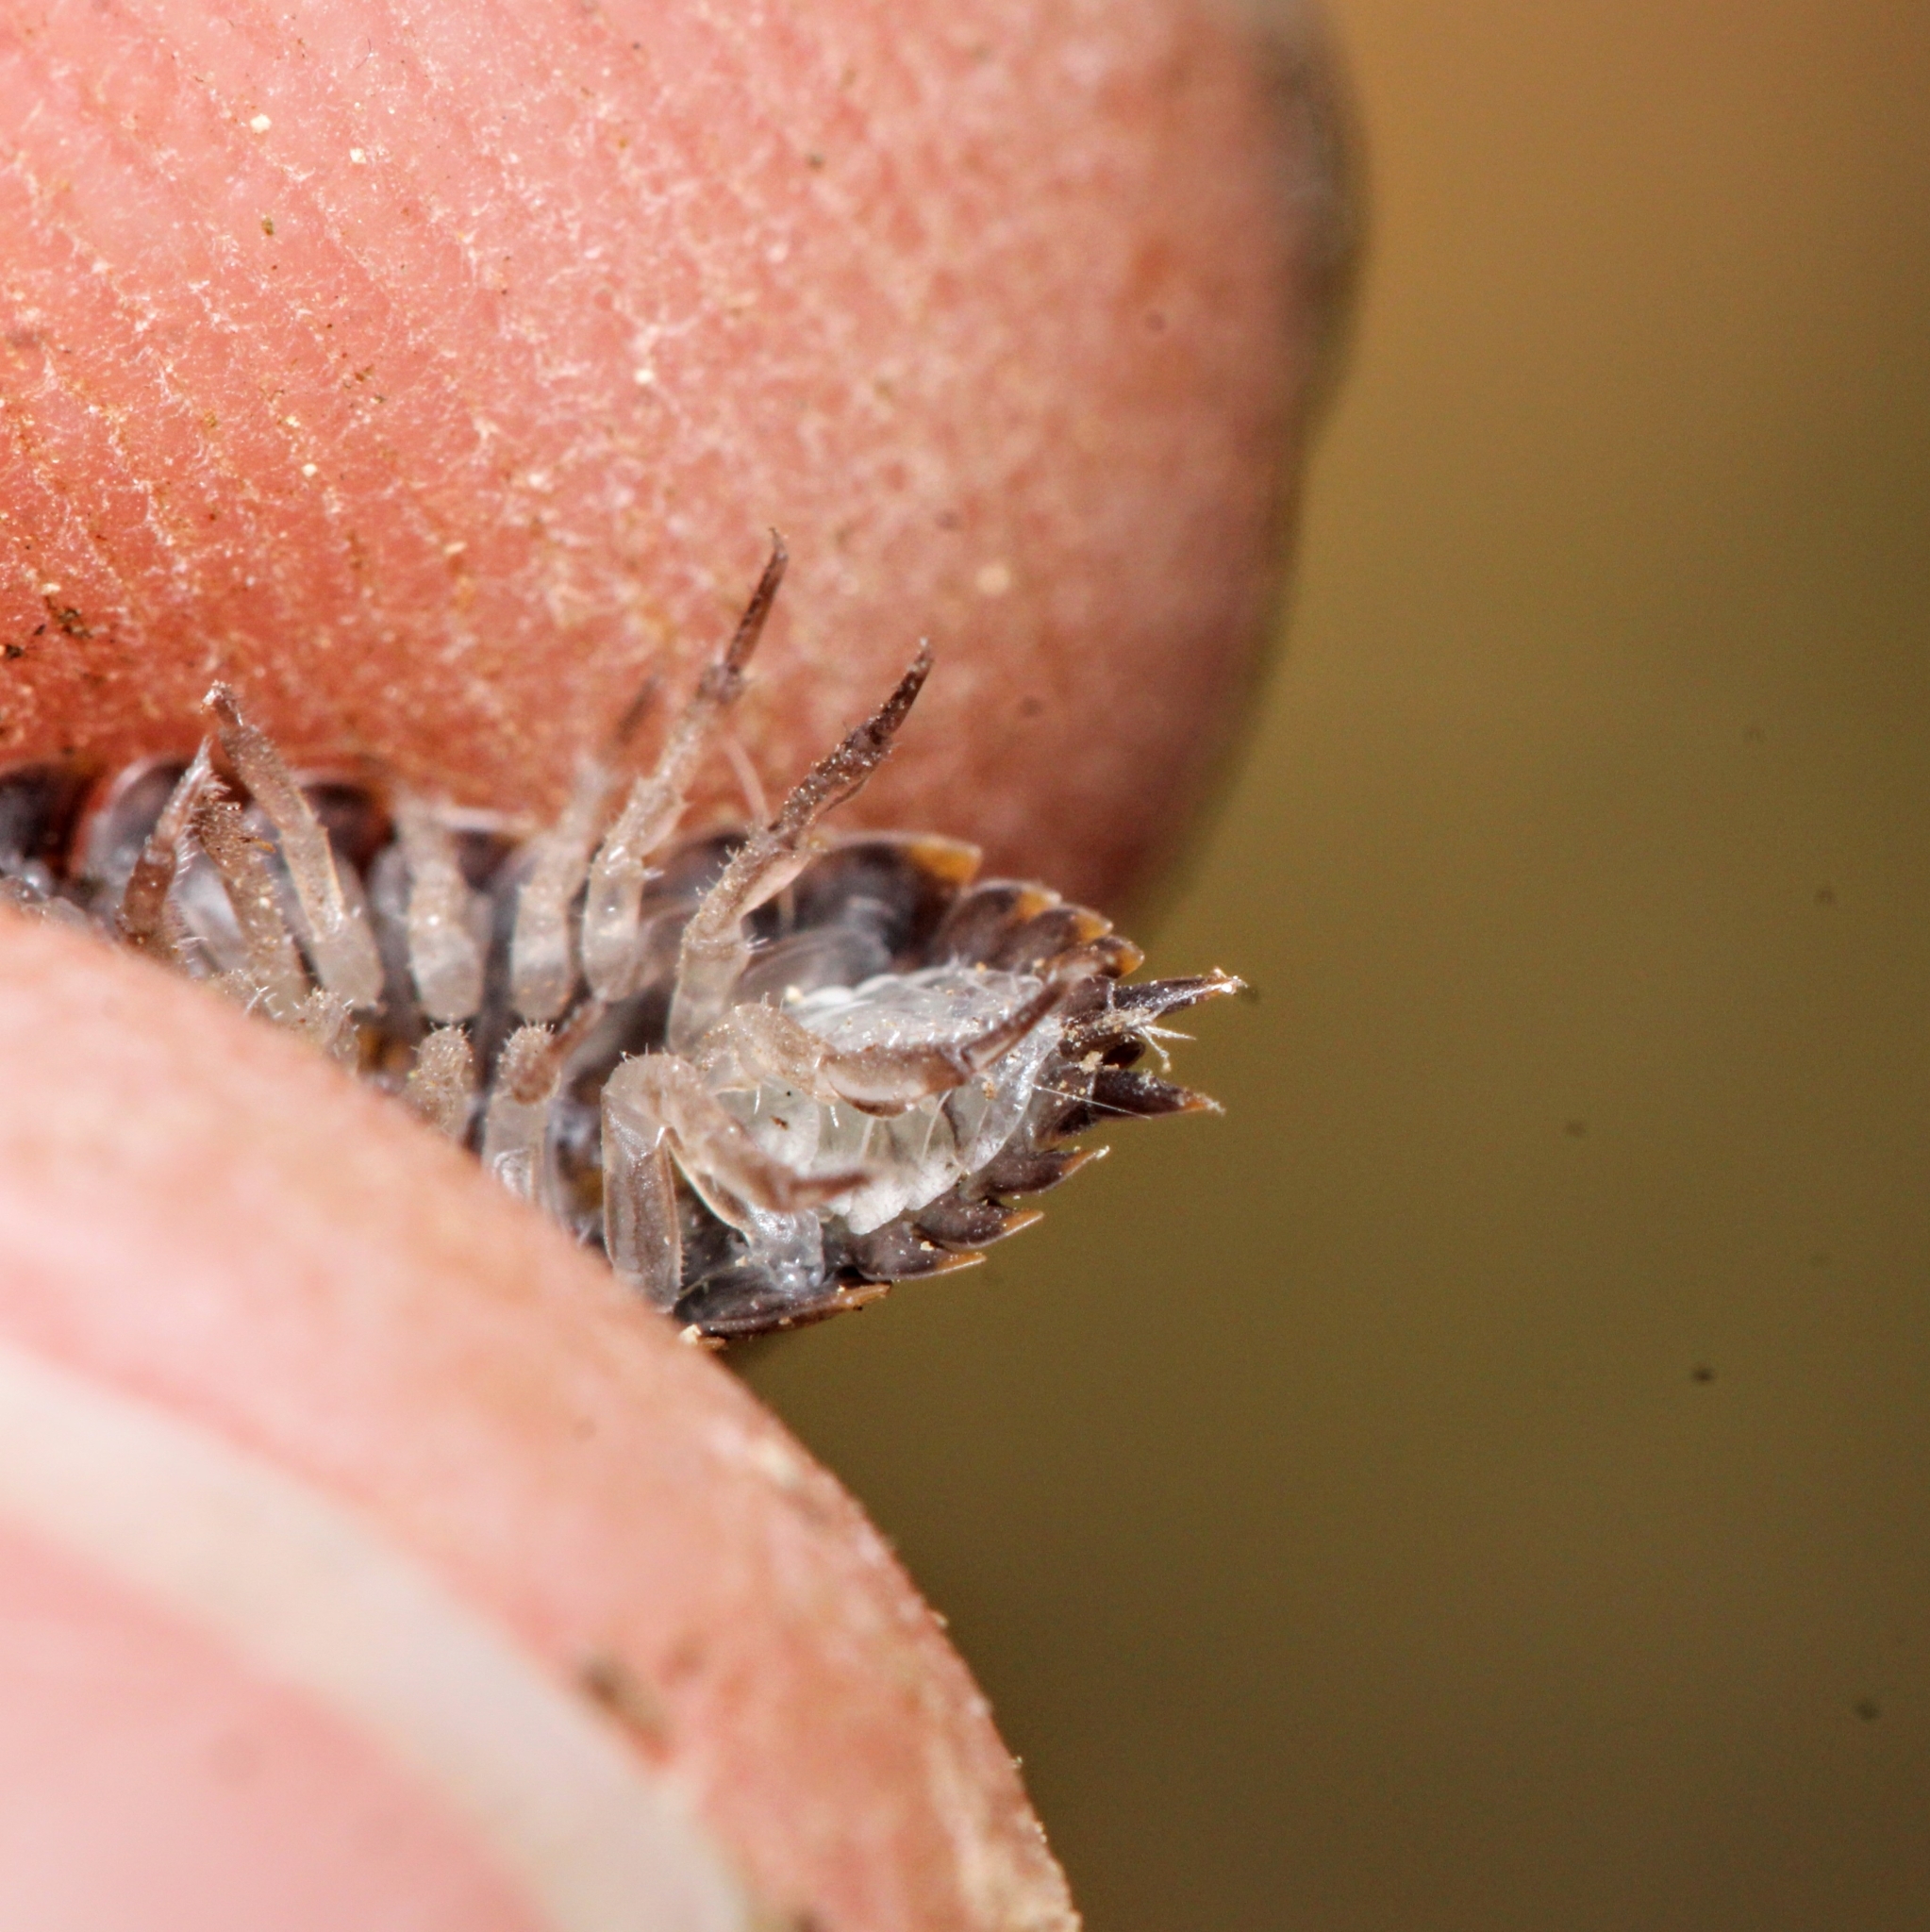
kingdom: Animalia
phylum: Arthropoda
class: Malacostraca
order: Isopoda
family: Trachelipodidae
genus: Trachelipus
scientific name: Trachelipus rathkii
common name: Isopod
